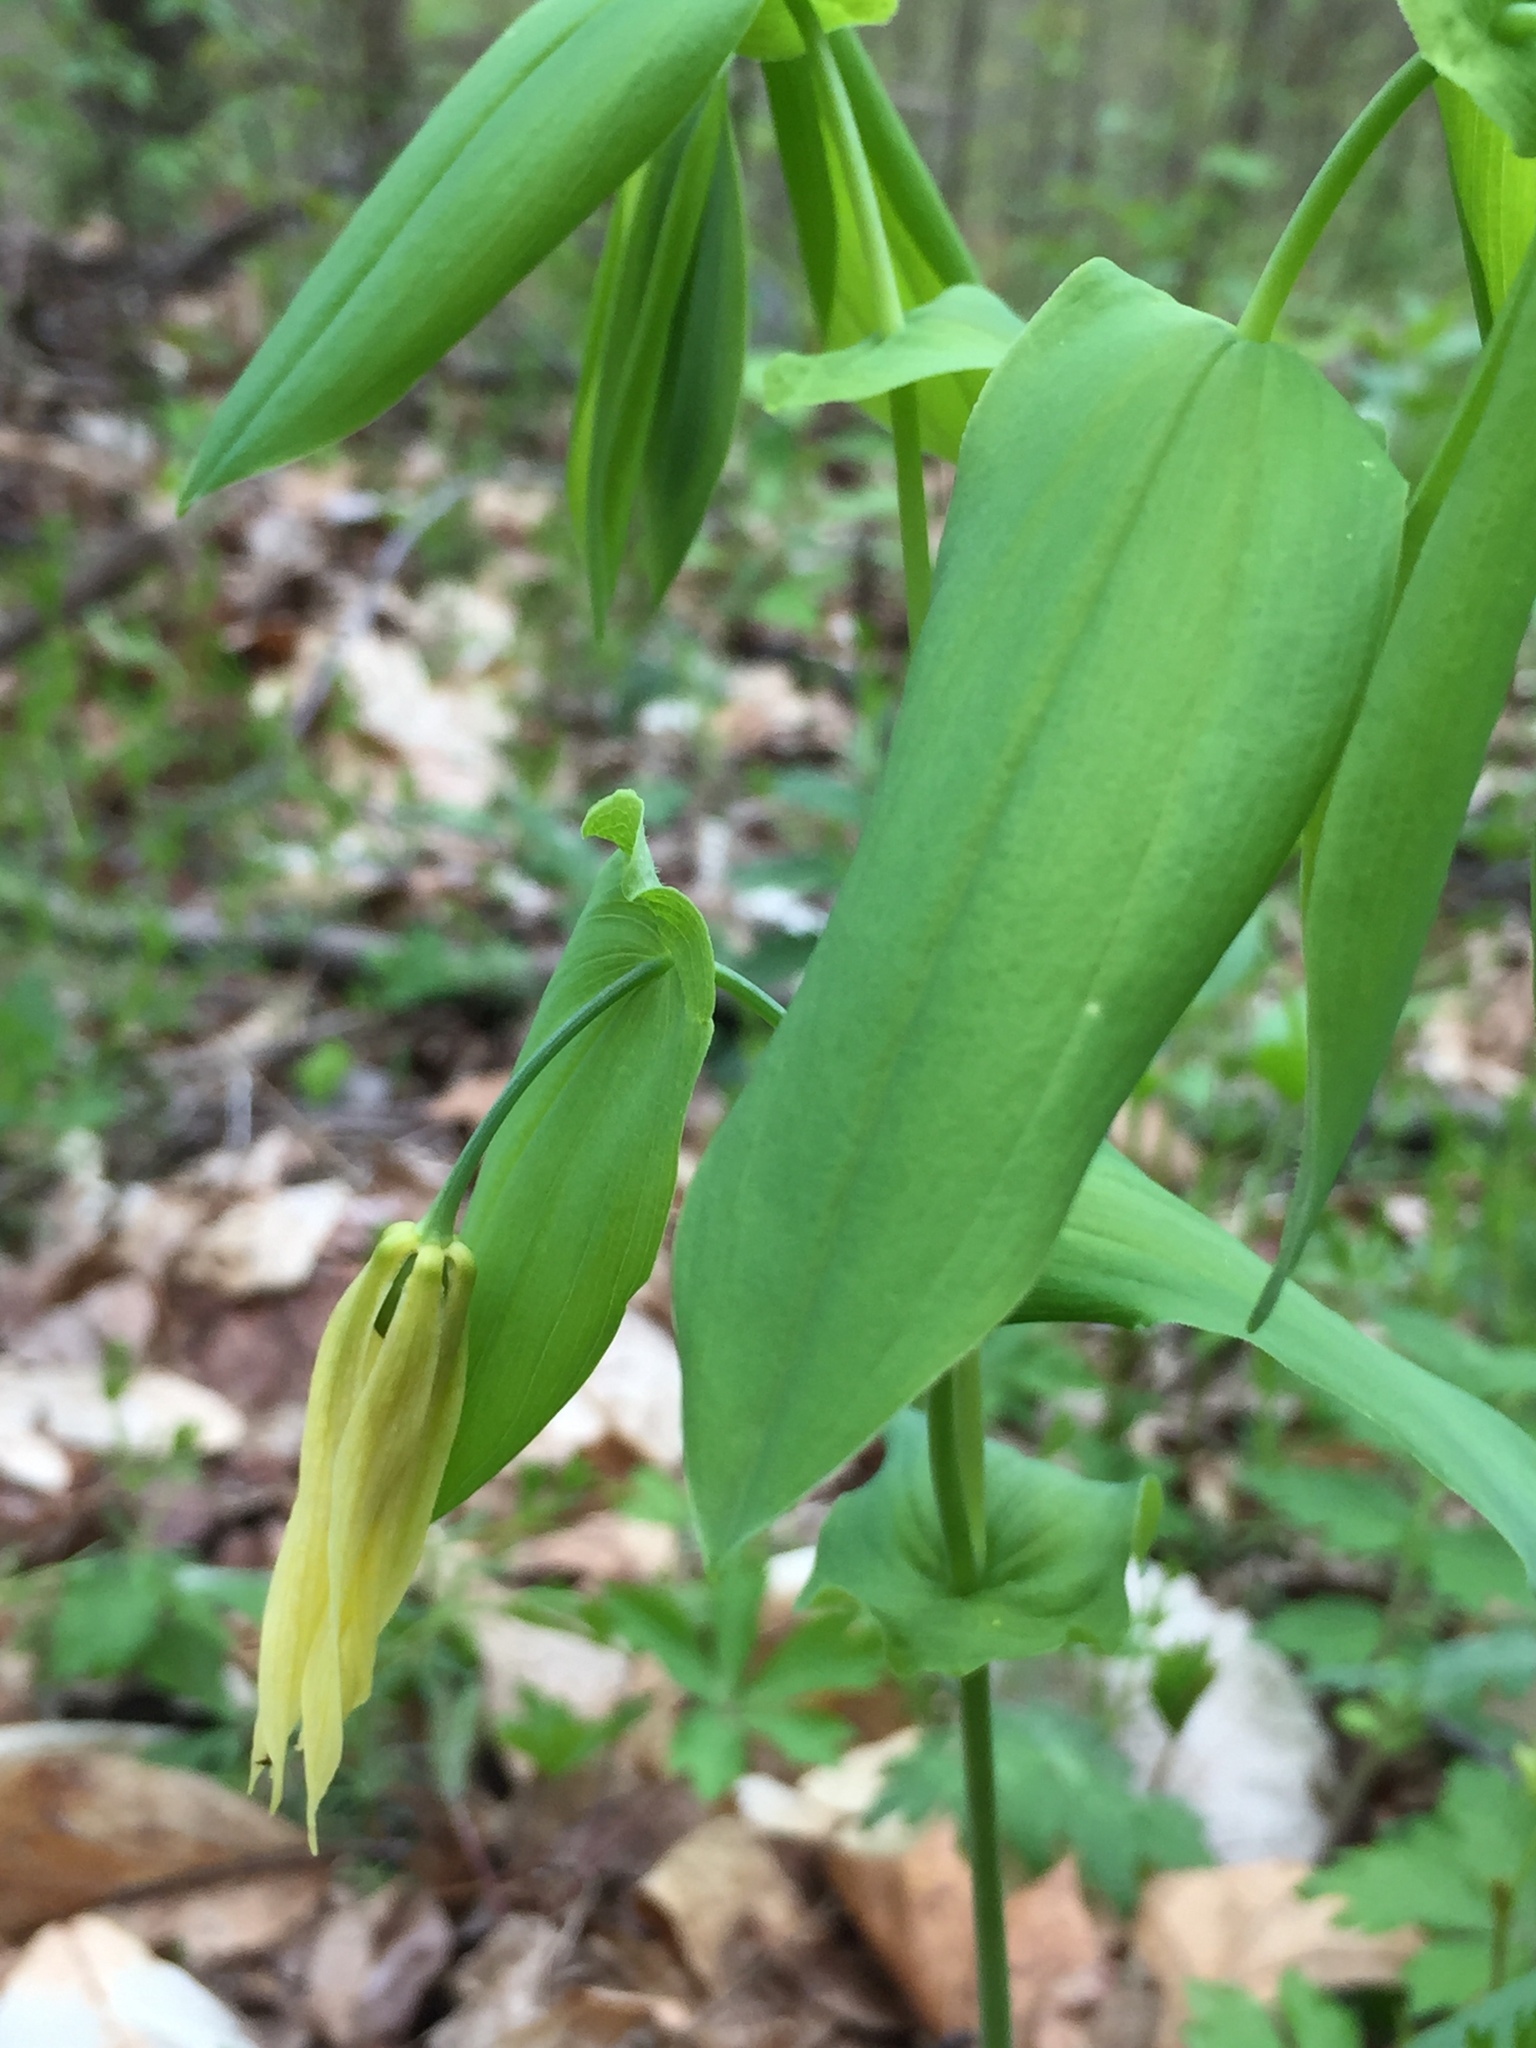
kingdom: Plantae
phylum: Tracheophyta
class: Liliopsida
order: Liliales
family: Colchicaceae
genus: Uvularia
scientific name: Uvularia grandiflora
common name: Bellwort
